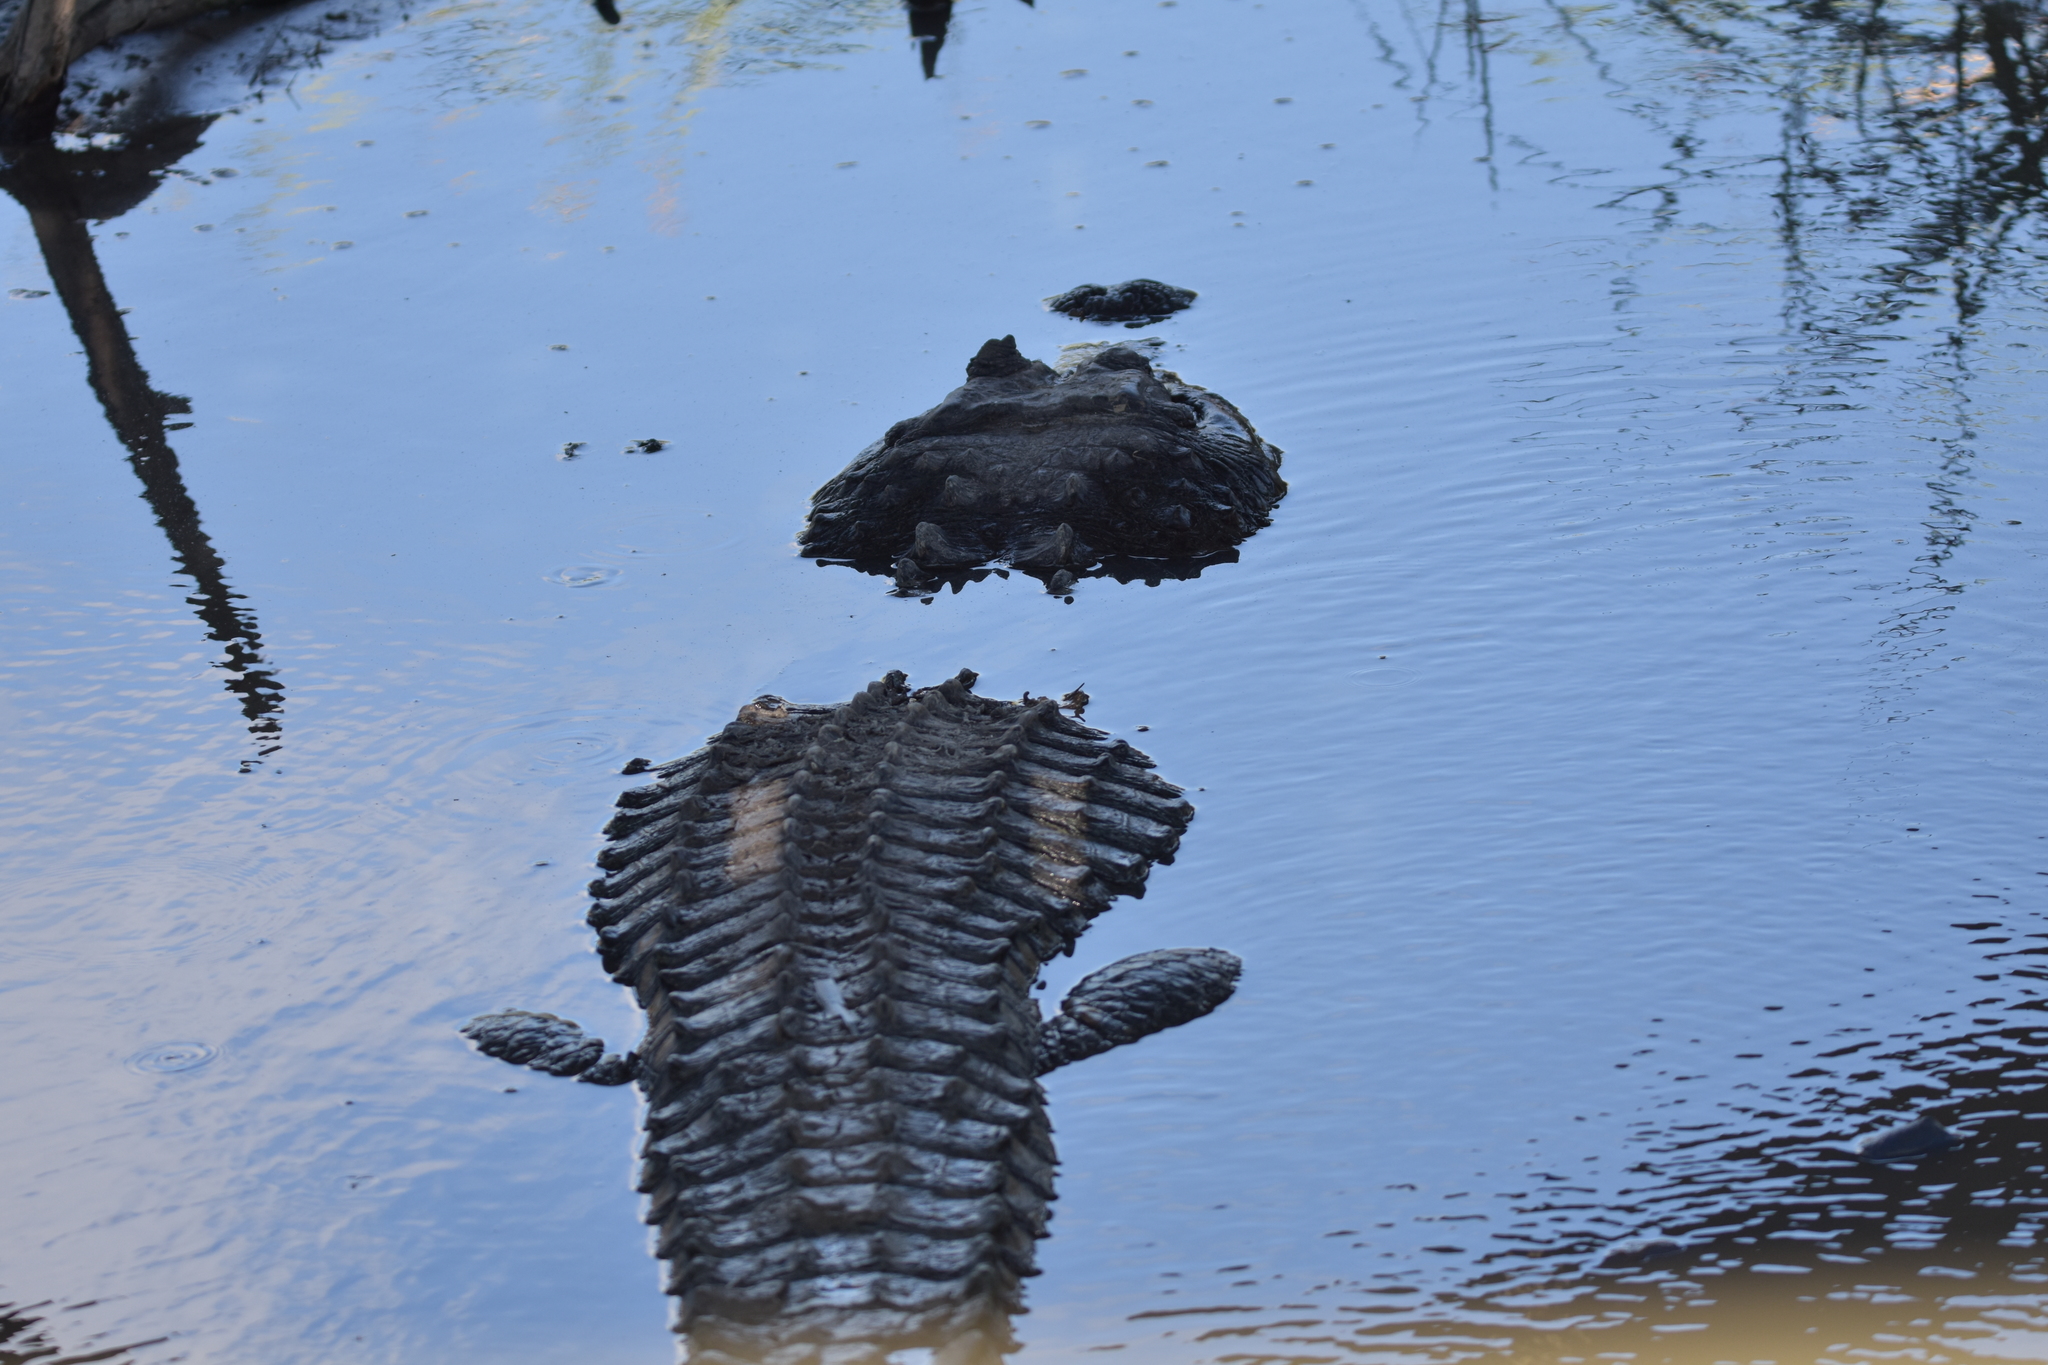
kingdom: Animalia
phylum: Chordata
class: Crocodylia
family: Alligatoridae
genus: Alligator
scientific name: Alligator mississippiensis
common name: American alligator
